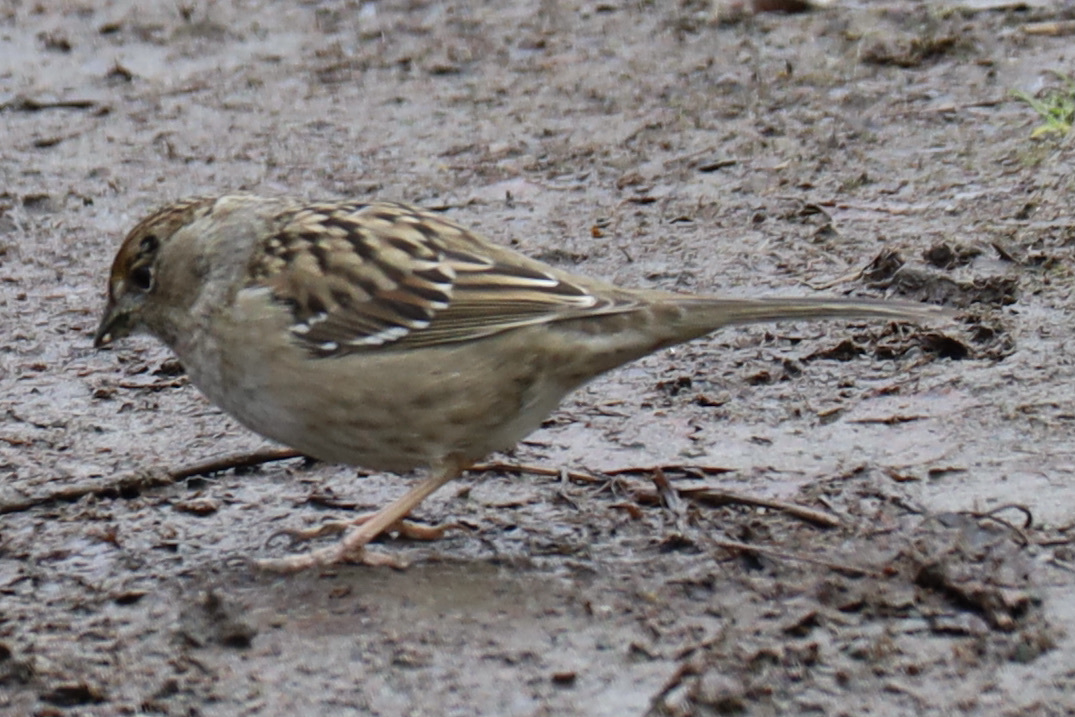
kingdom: Animalia
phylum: Chordata
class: Aves
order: Passeriformes
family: Passerellidae
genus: Zonotrichia
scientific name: Zonotrichia atricapilla
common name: Golden-crowned sparrow
